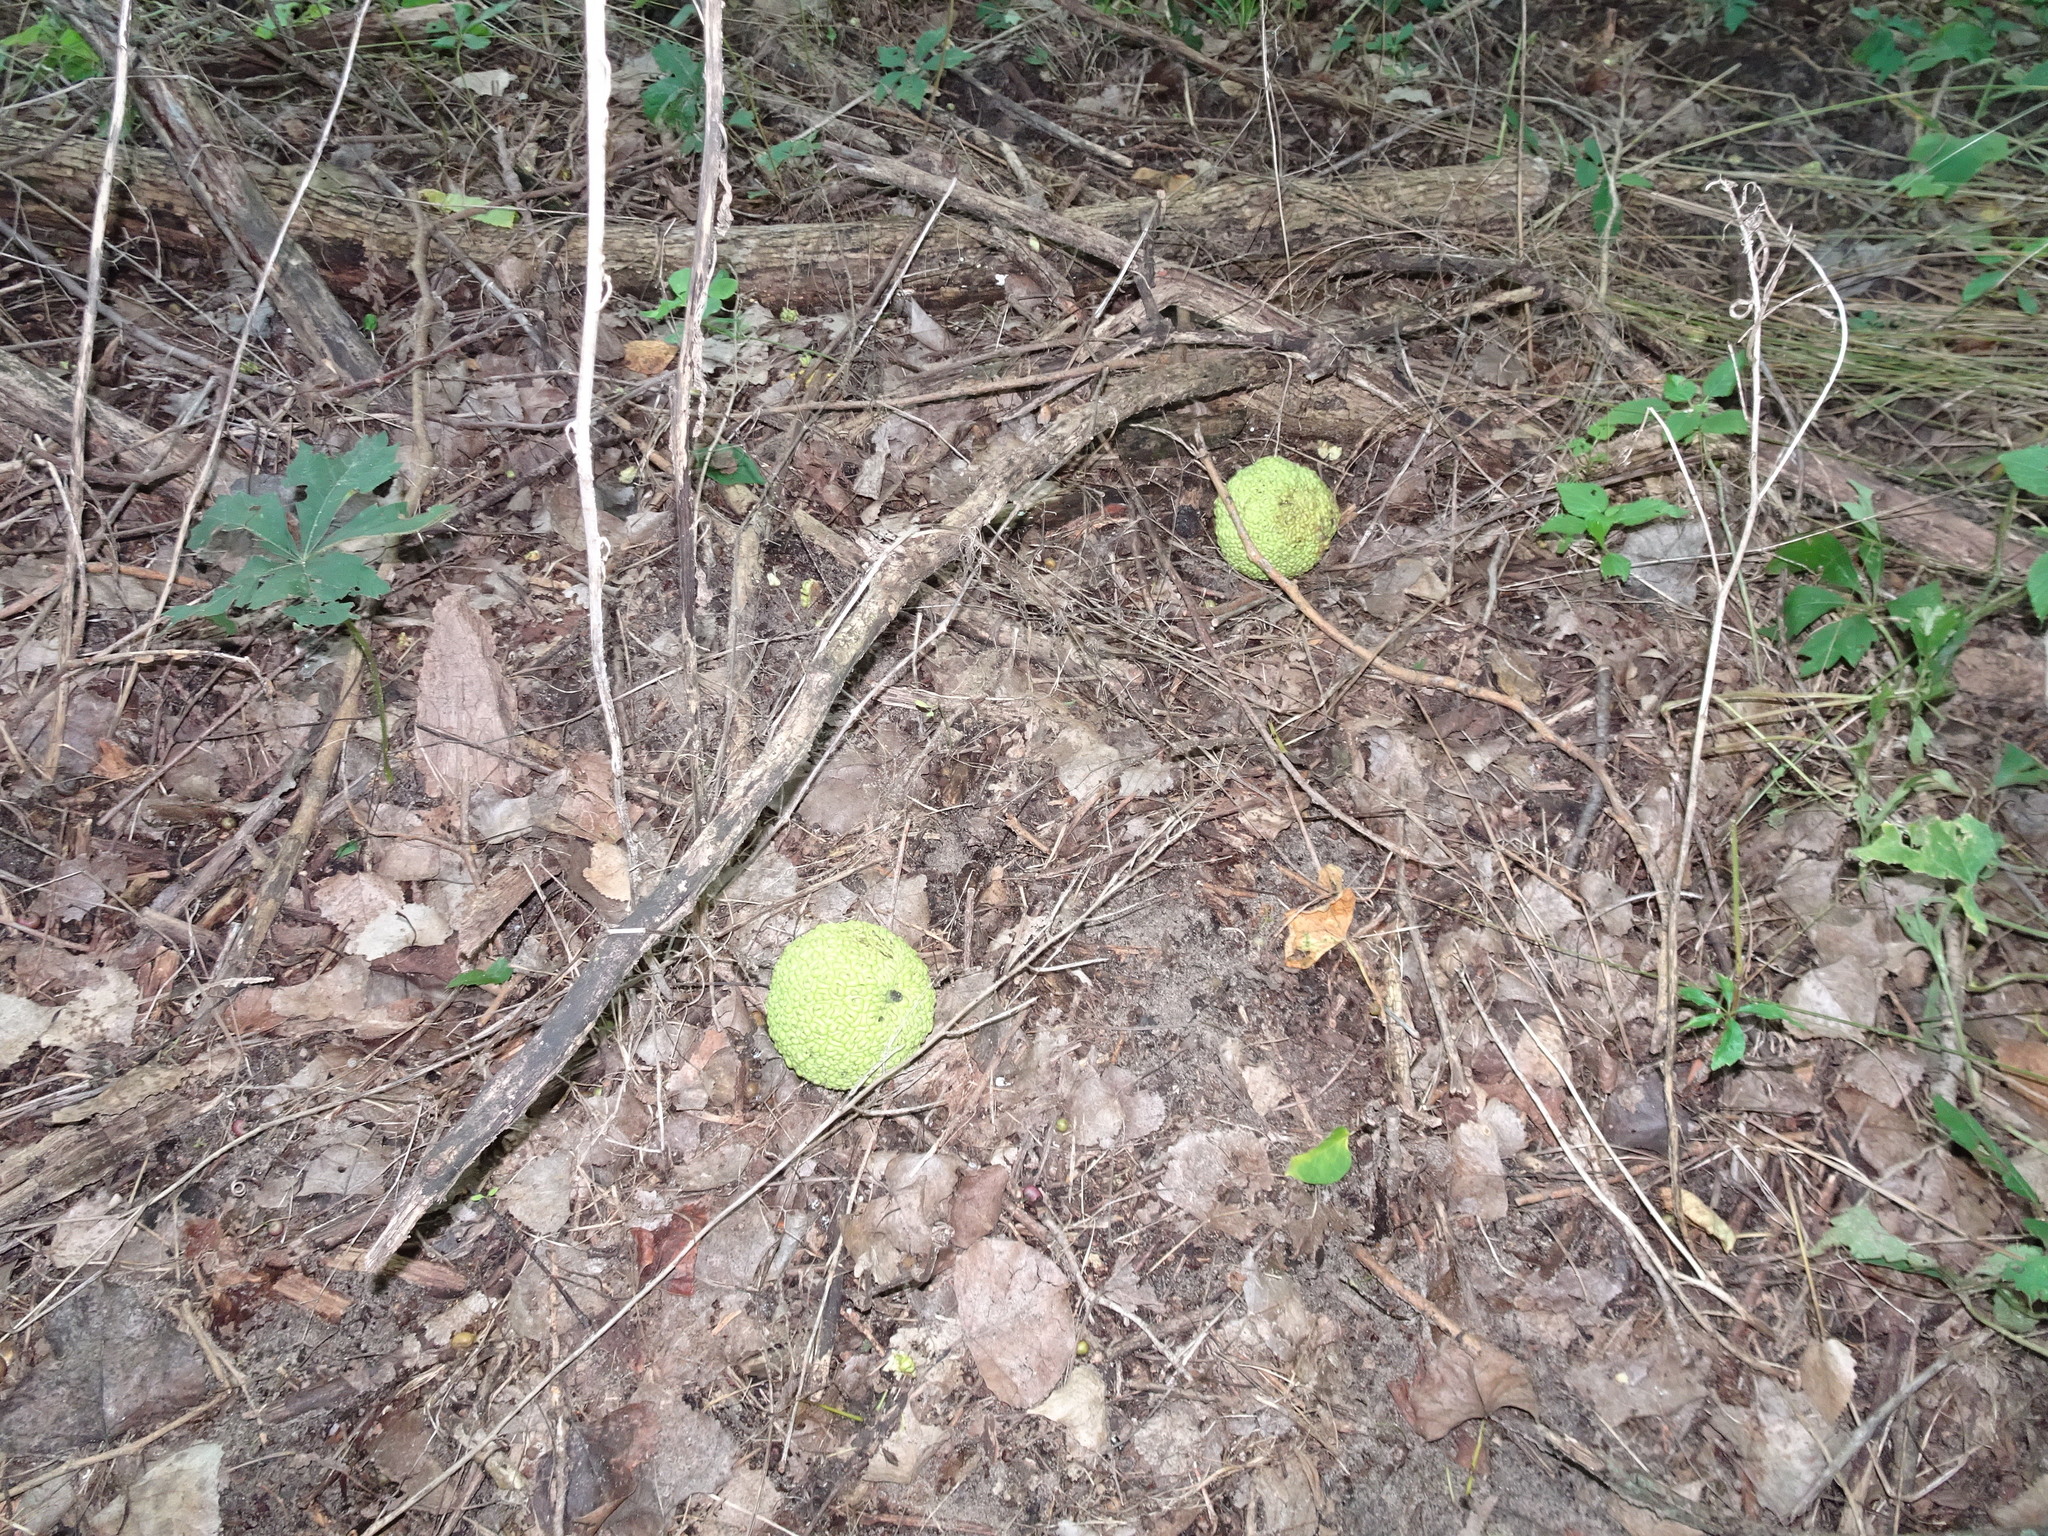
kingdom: Plantae
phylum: Tracheophyta
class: Magnoliopsida
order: Rosales
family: Moraceae
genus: Maclura
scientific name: Maclura pomifera
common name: Osage-orange
